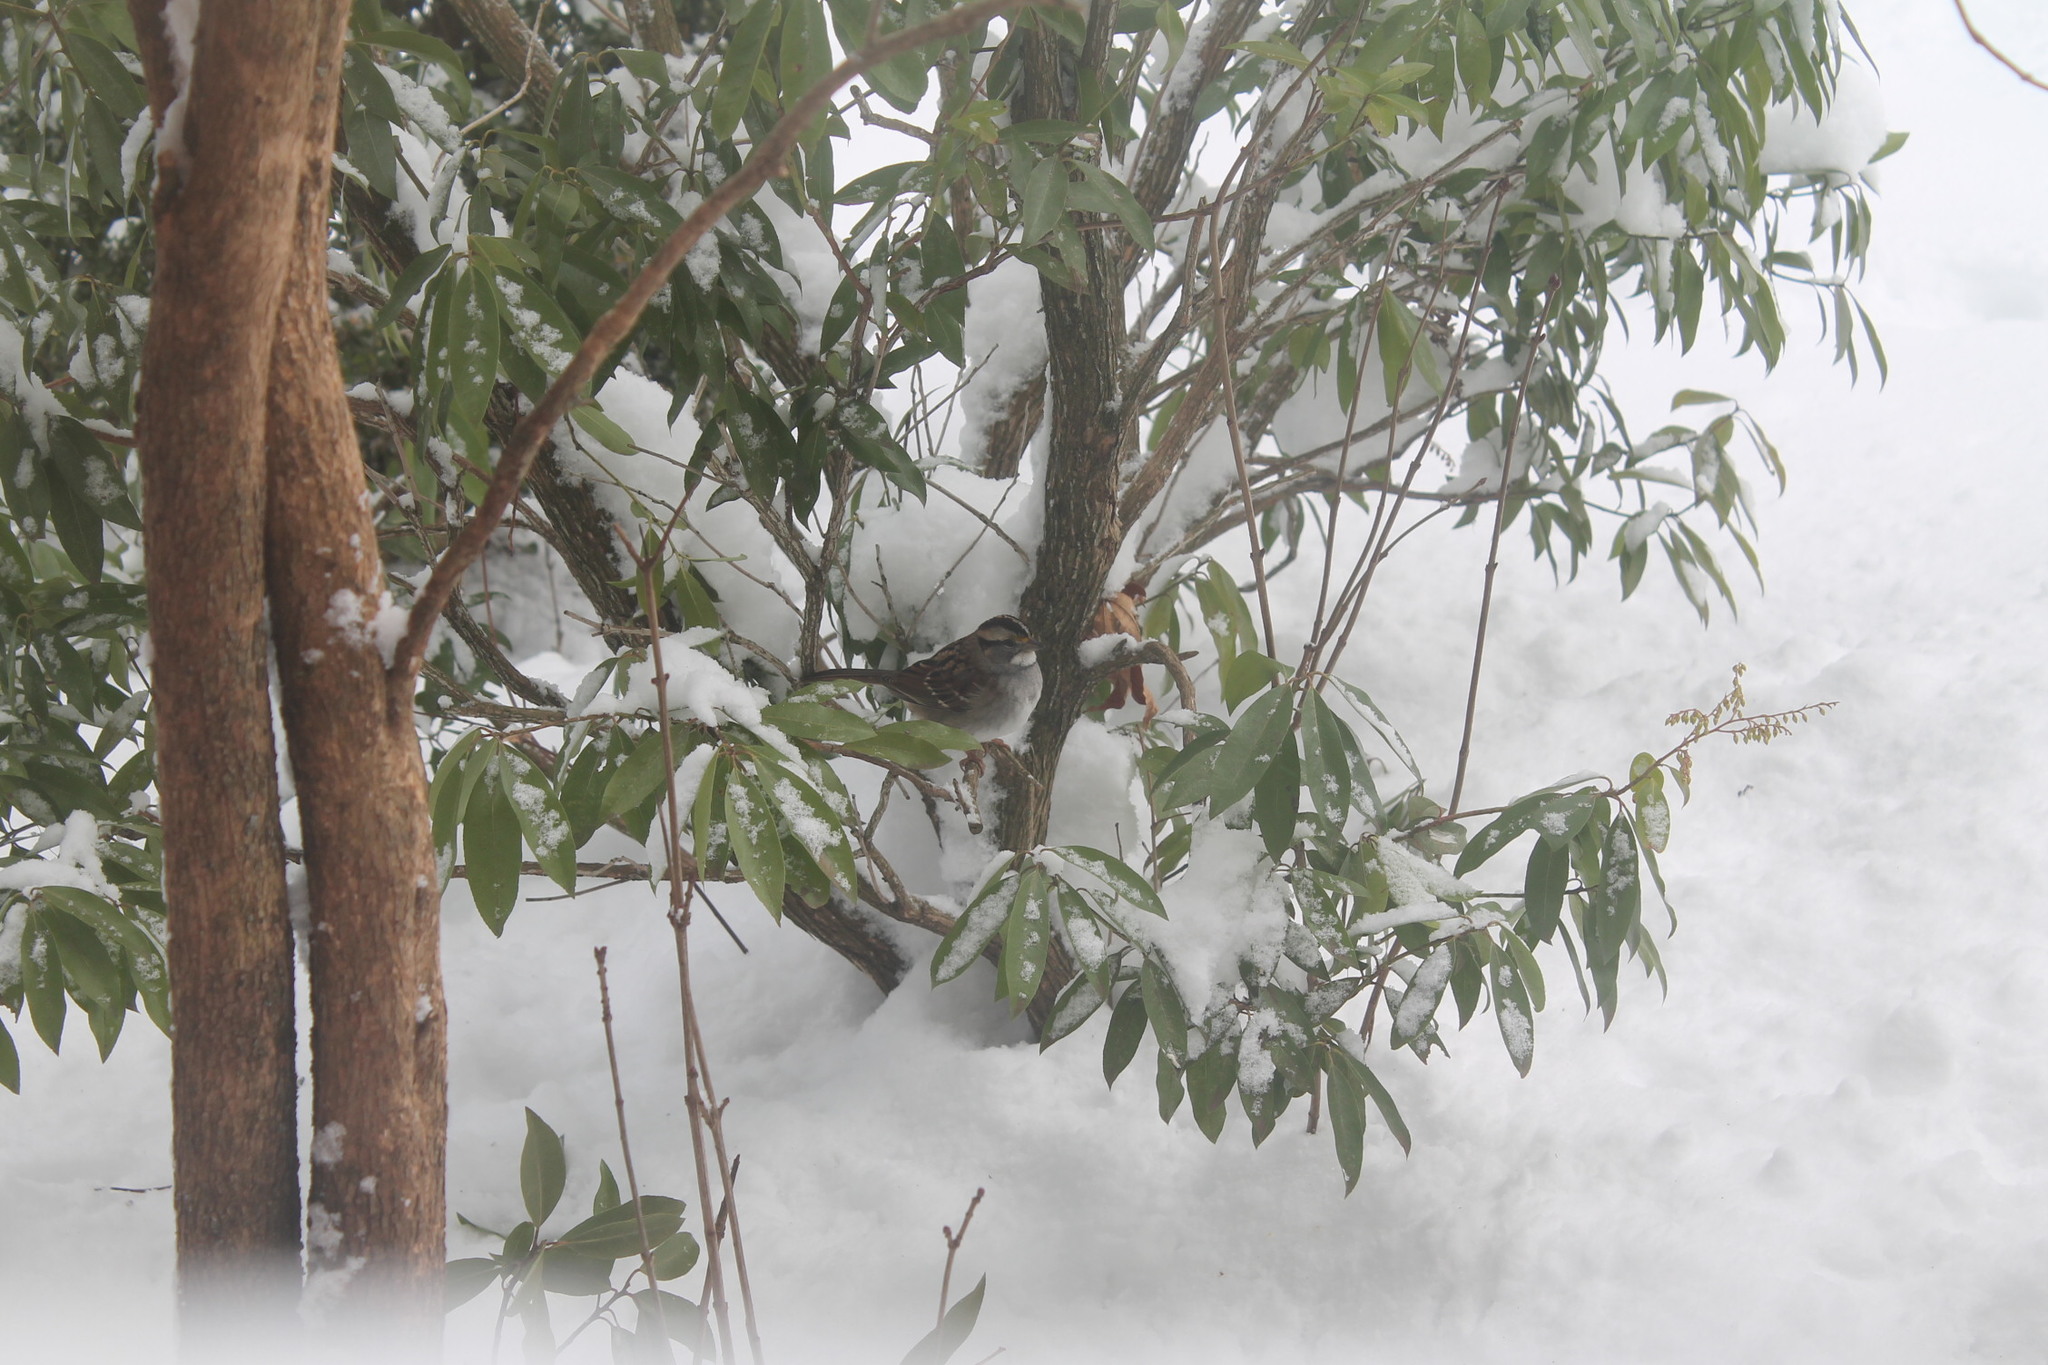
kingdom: Animalia
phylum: Chordata
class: Aves
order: Passeriformes
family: Passerellidae
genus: Zonotrichia
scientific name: Zonotrichia albicollis
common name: White-throated sparrow
